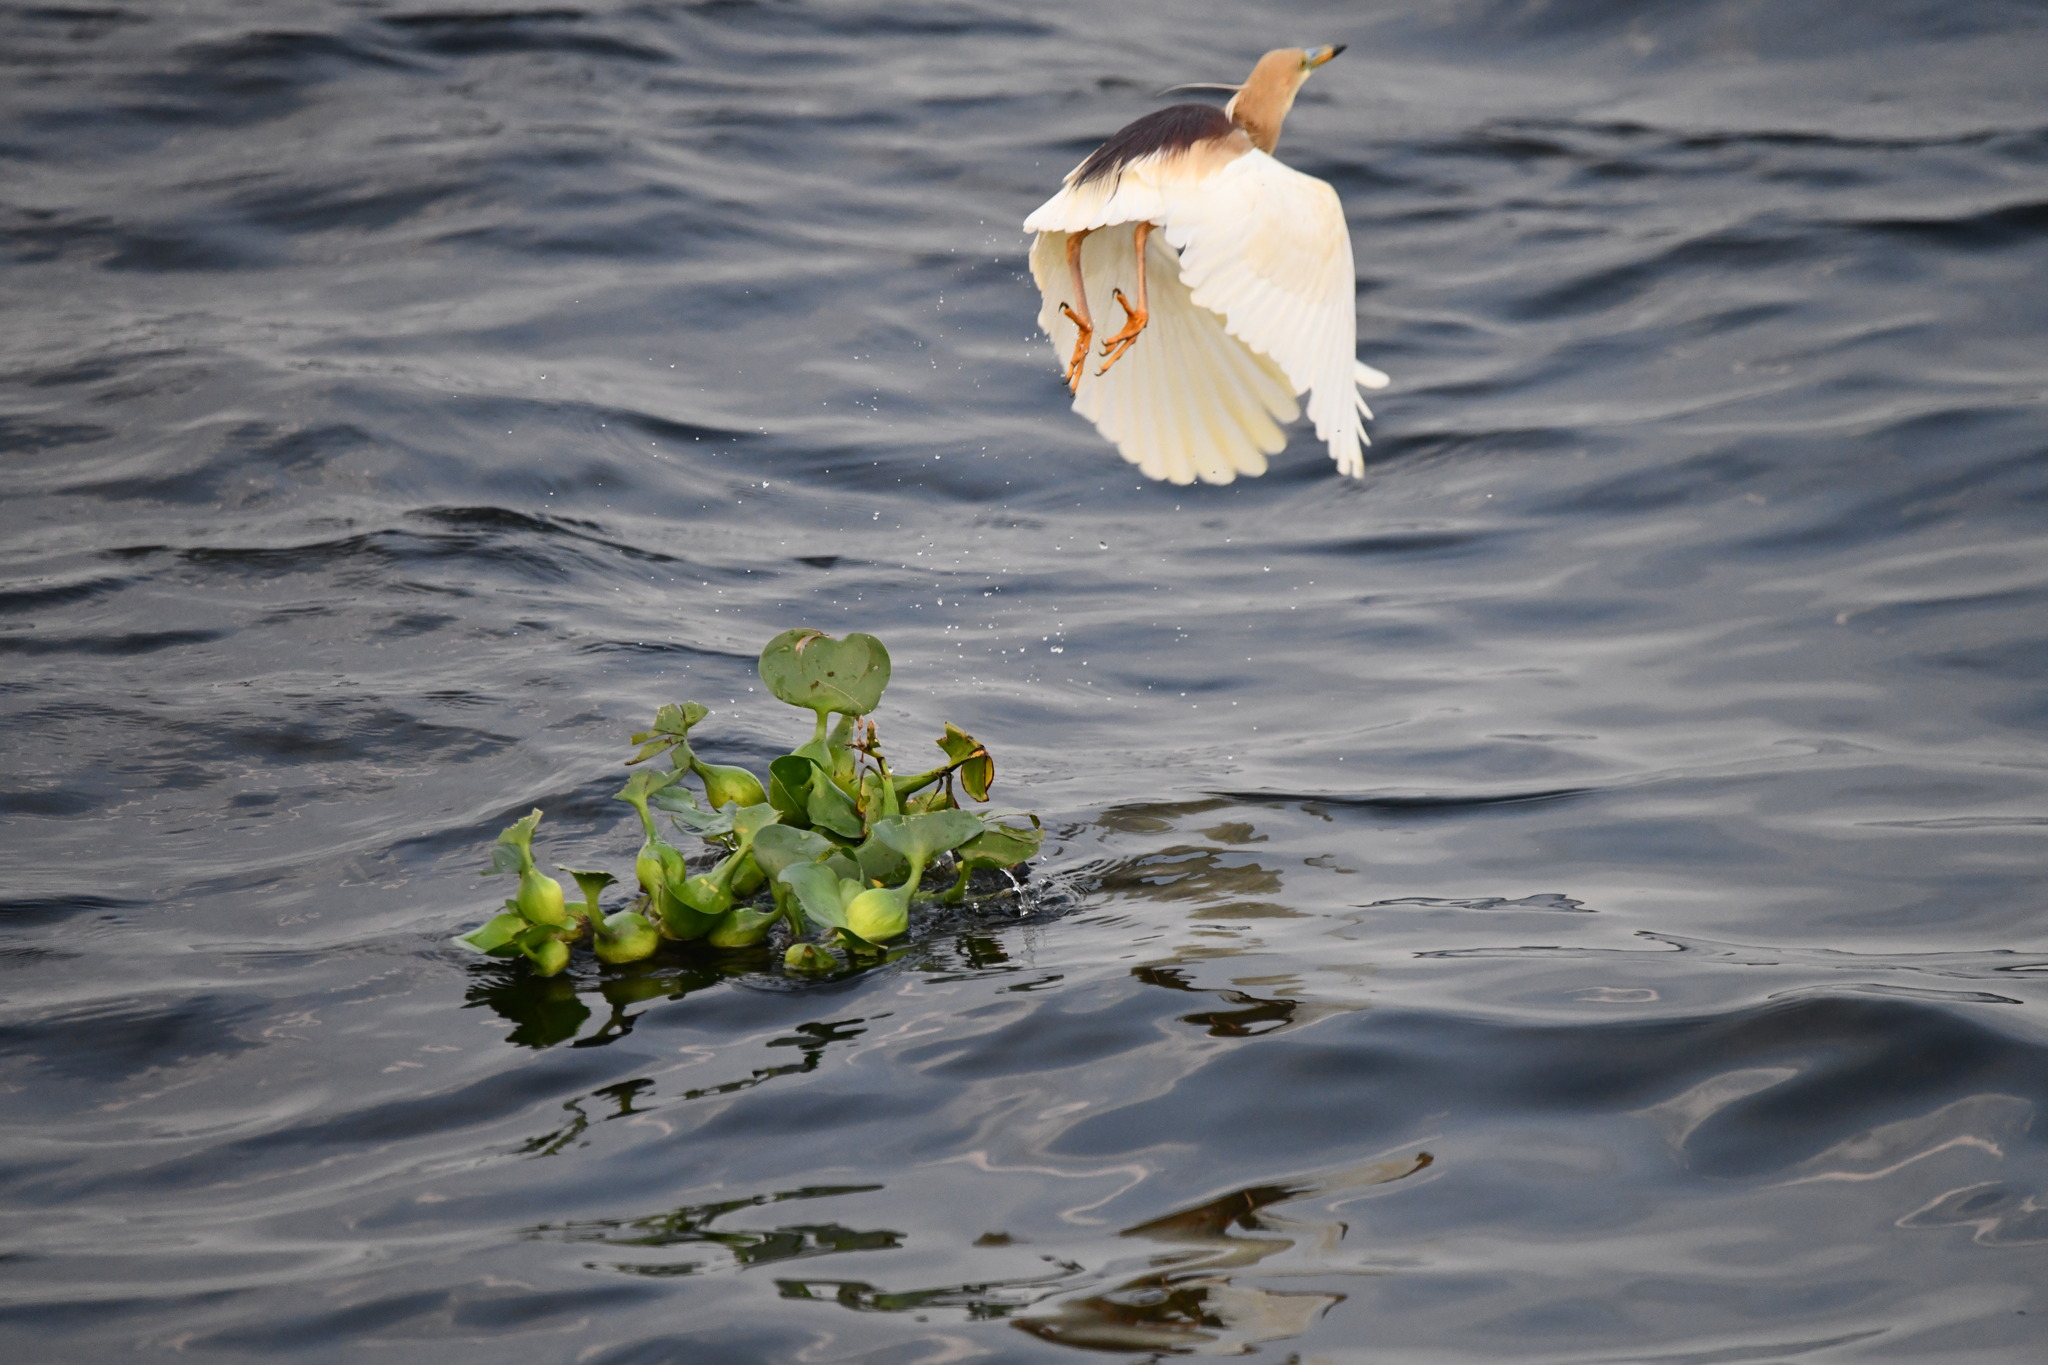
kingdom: Animalia
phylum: Chordata
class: Aves
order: Pelecaniformes
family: Ardeidae
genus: Ardeola
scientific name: Ardeola grayii
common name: Indian pond heron
